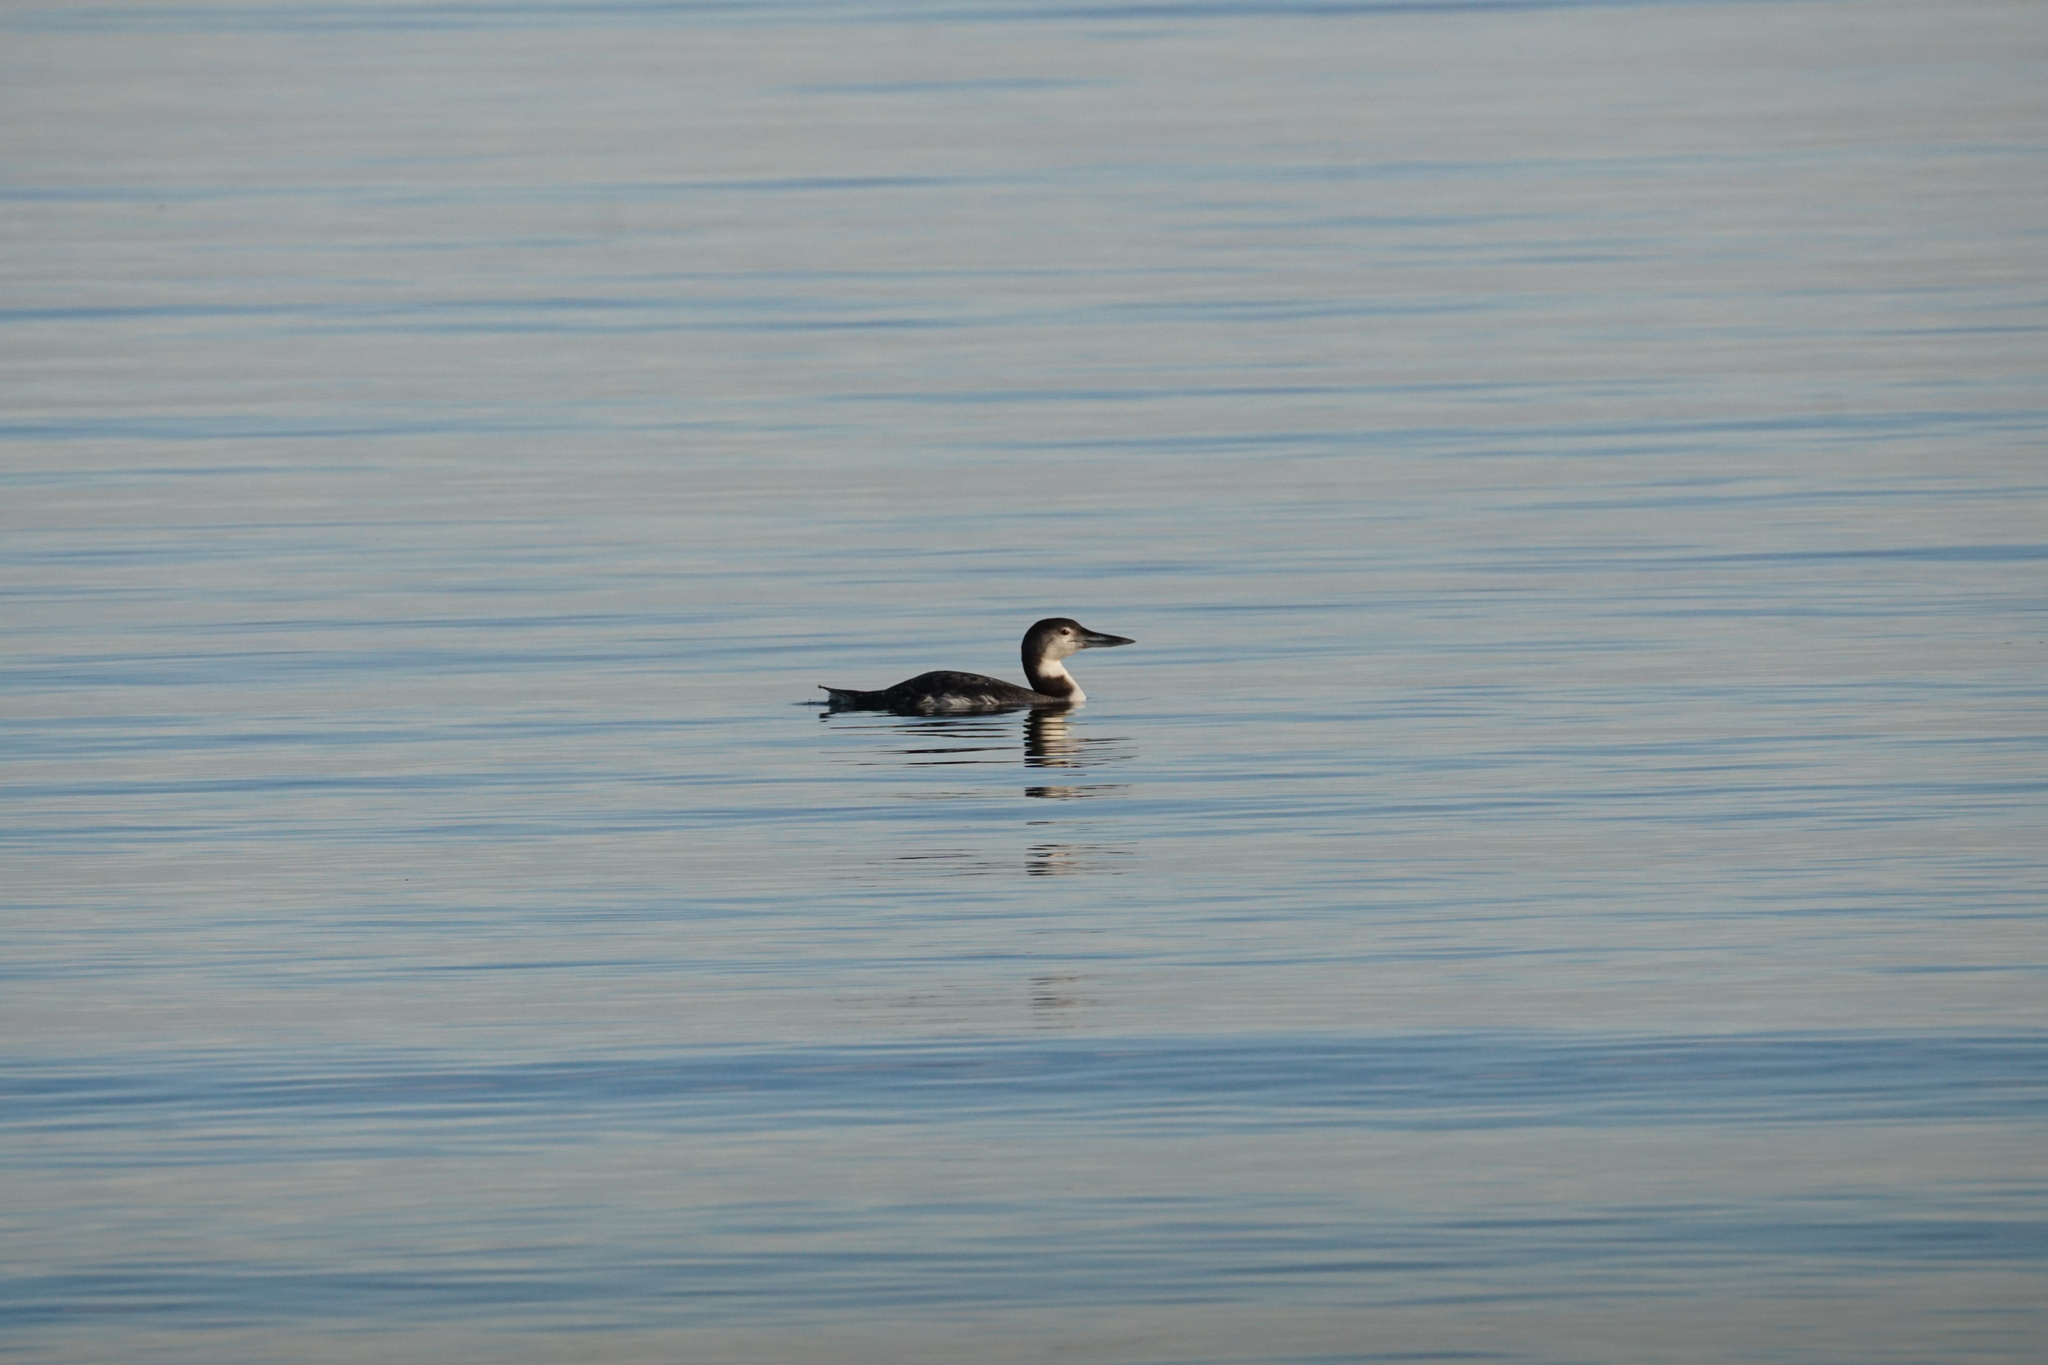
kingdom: Animalia
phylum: Chordata
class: Aves
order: Gaviiformes
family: Gaviidae
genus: Gavia
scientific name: Gavia immer
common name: Common loon
